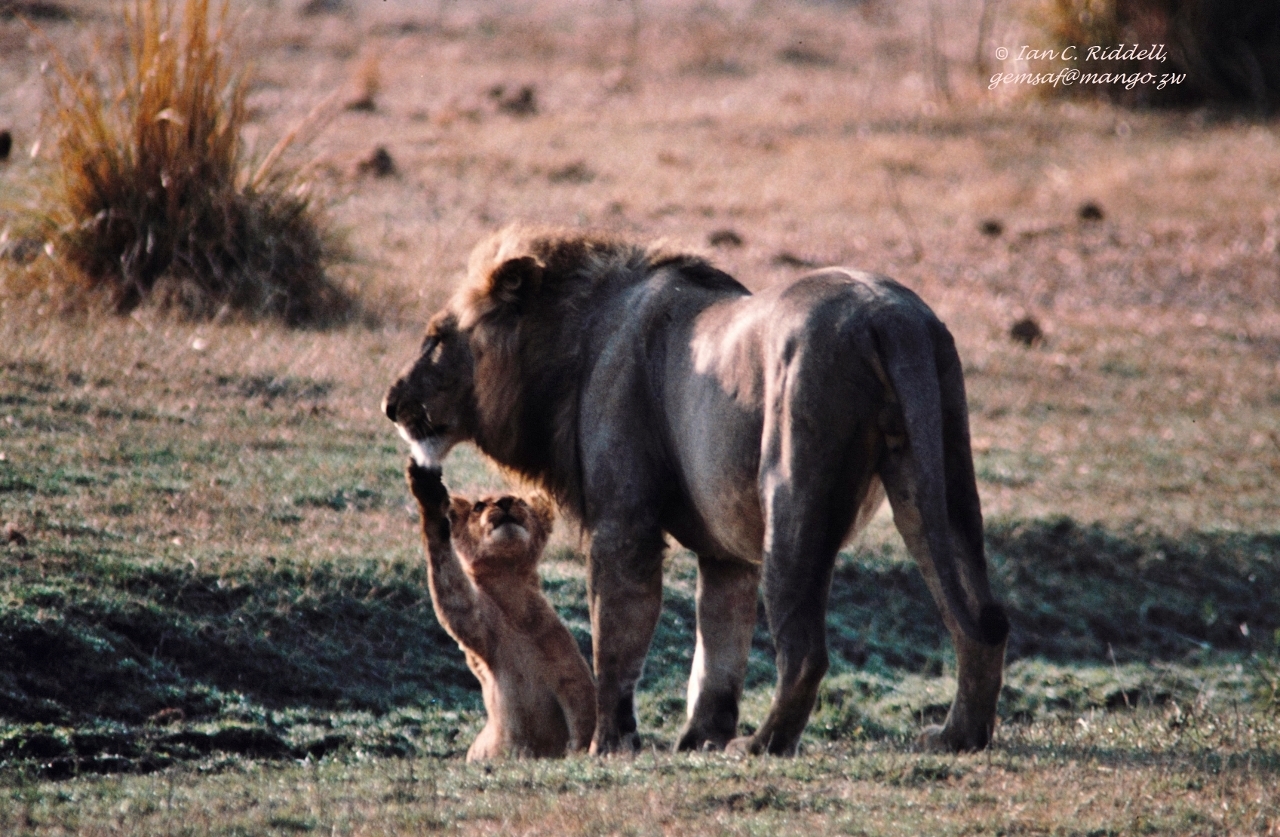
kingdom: Animalia
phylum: Chordata
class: Mammalia
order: Carnivora
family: Felidae
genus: Panthera
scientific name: Panthera leo
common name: Lion
